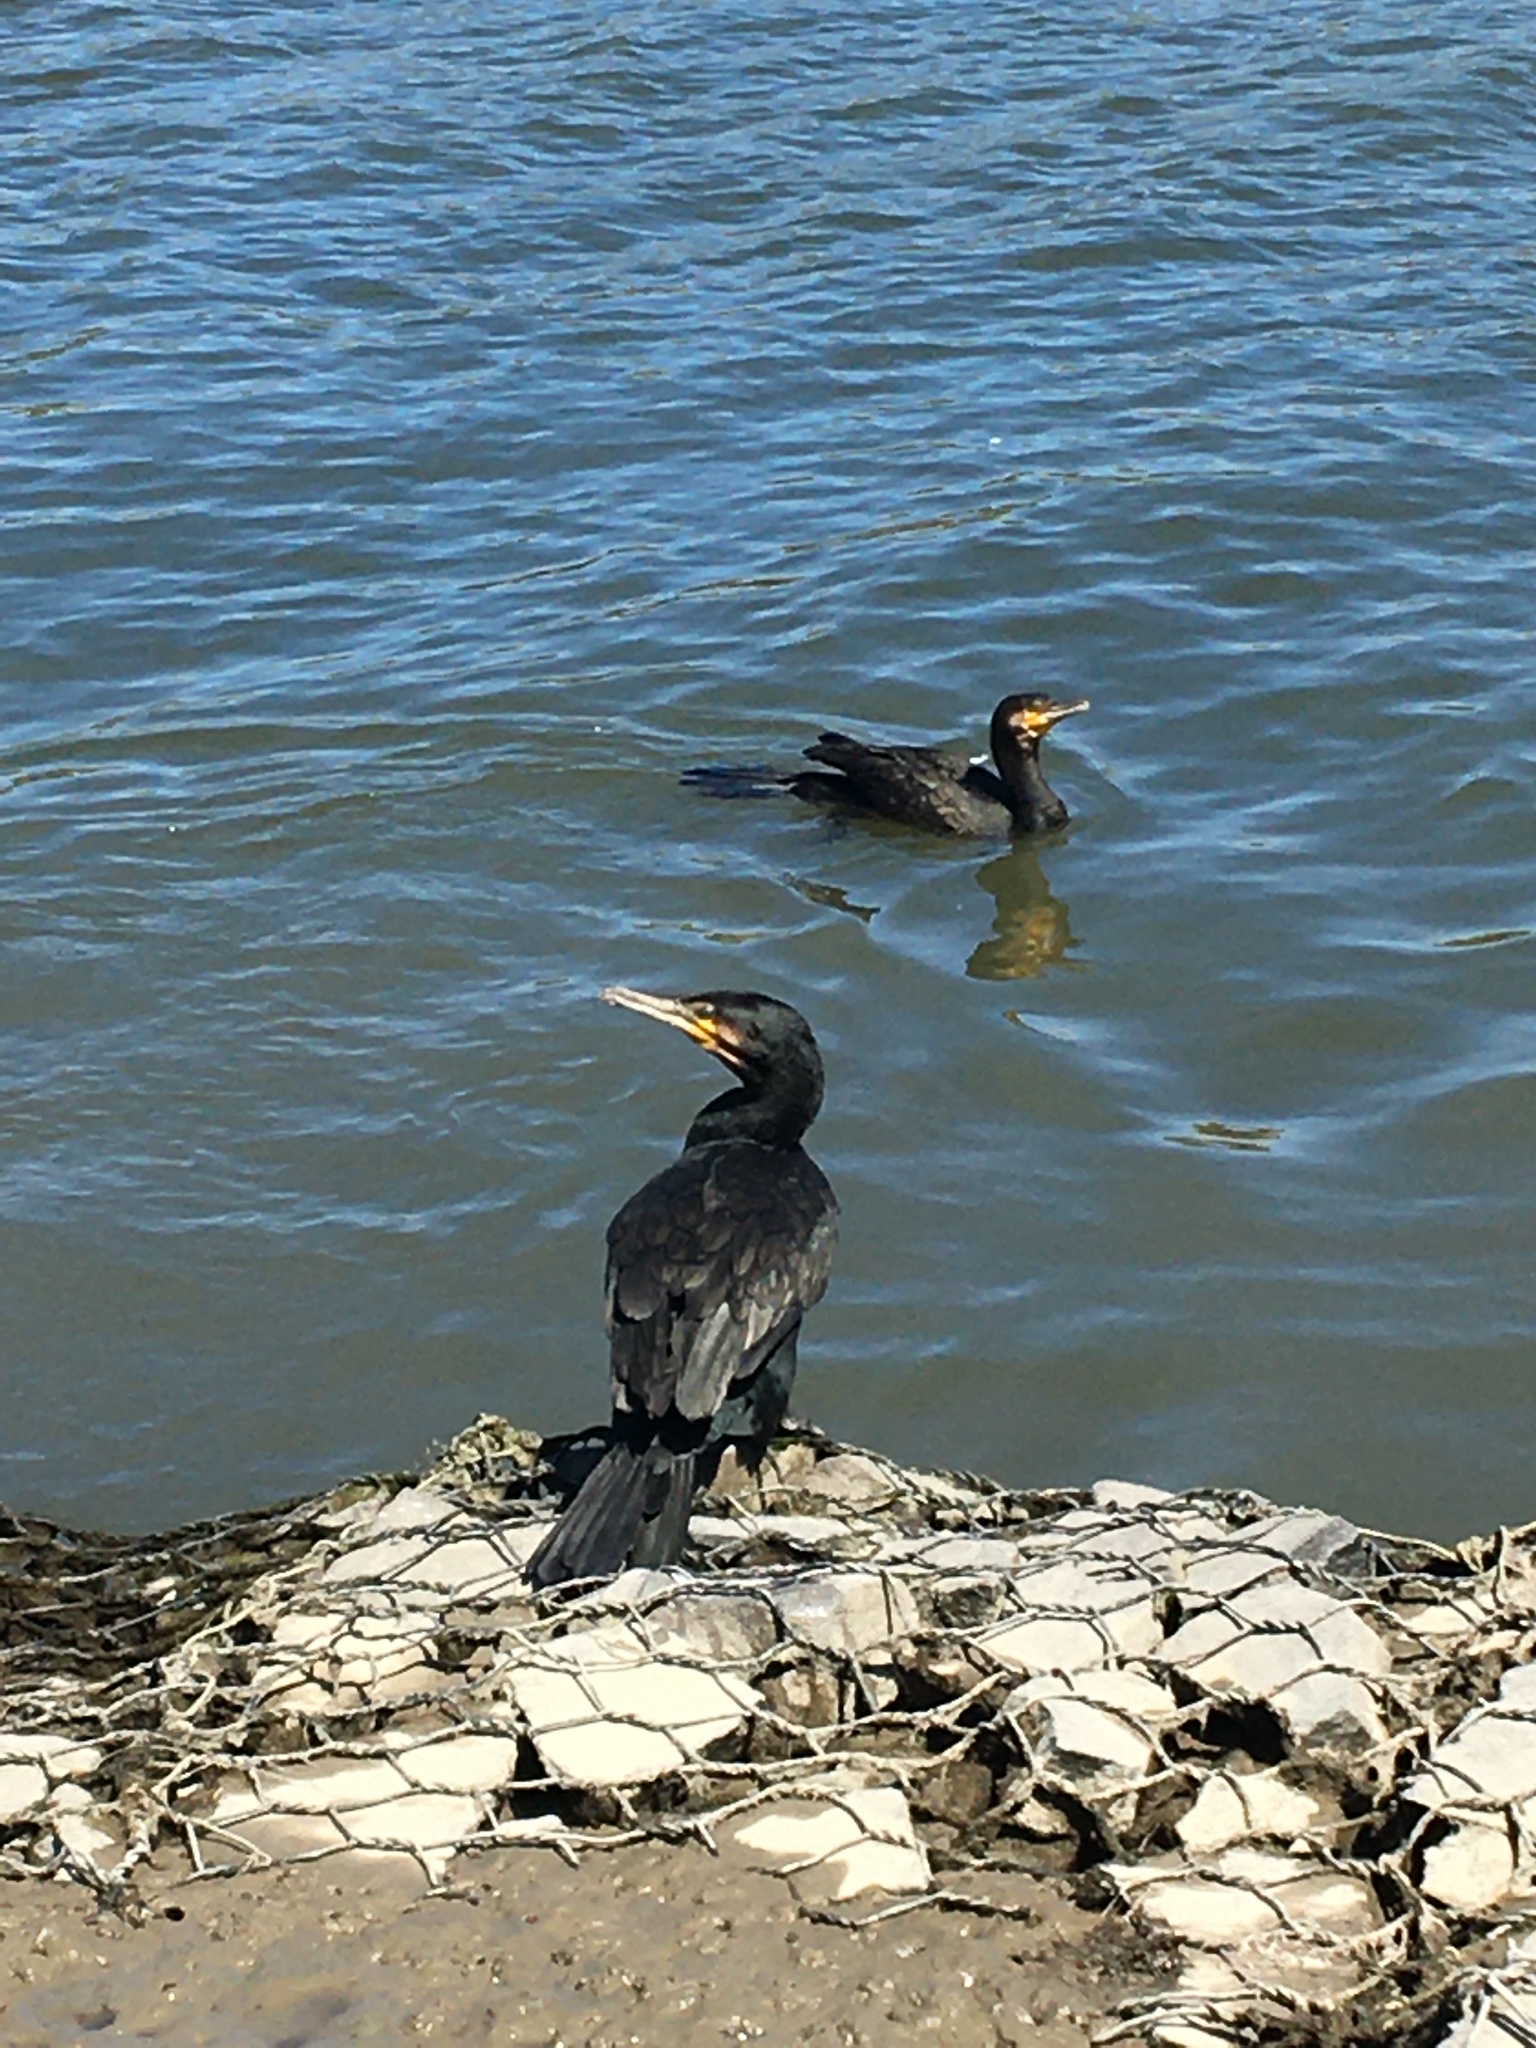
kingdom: Animalia
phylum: Chordata
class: Aves
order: Suliformes
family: Phalacrocoracidae
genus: Phalacrocorax
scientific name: Phalacrocorax carbo
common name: Great cormorant
